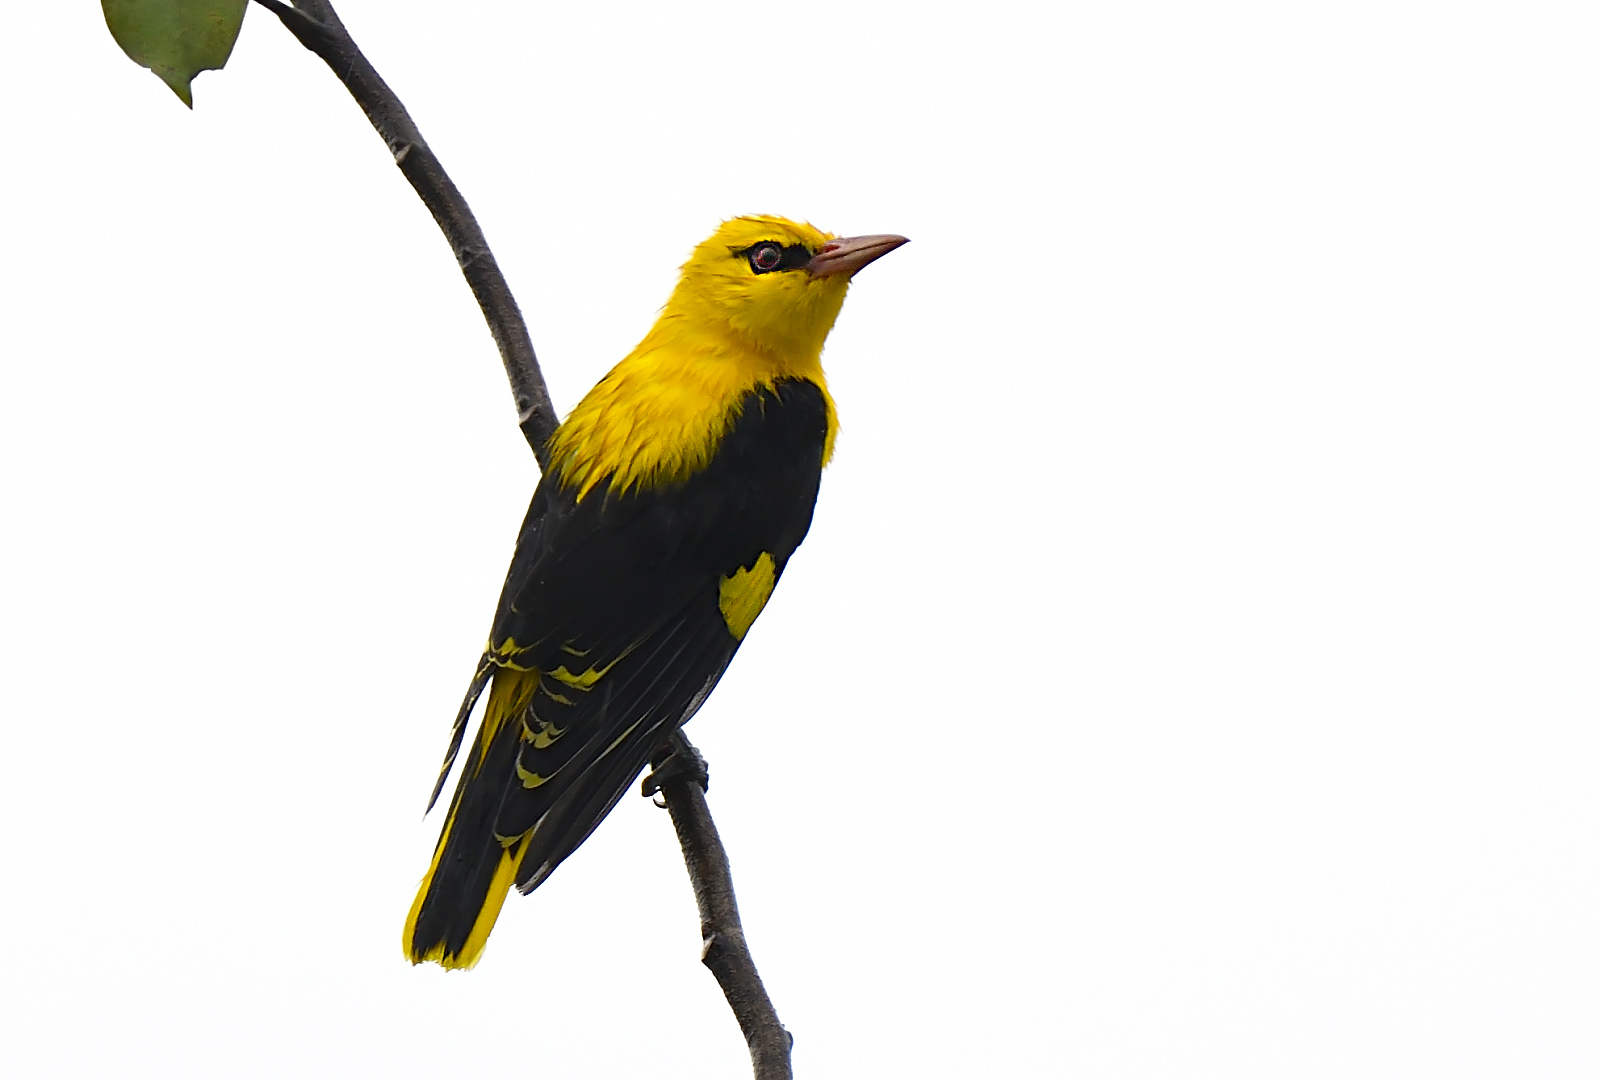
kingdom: Animalia
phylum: Chordata
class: Aves
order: Passeriformes
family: Oriolidae
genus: Oriolus
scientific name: Oriolus kundoo
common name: Indian golden oriole
